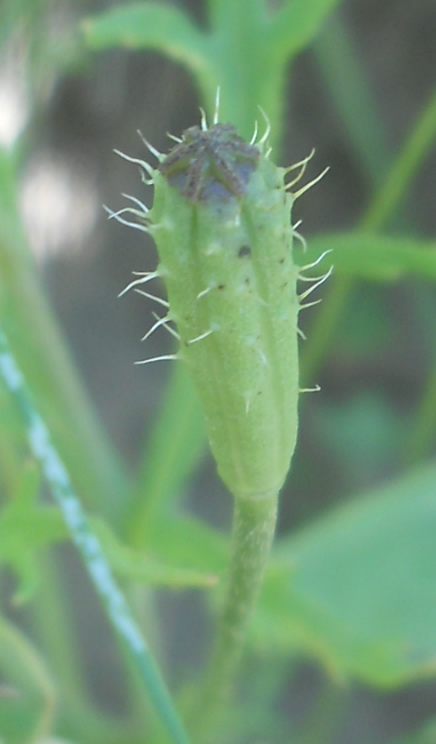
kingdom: Plantae
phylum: Tracheophyta
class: Magnoliopsida
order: Ranunculales
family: Papaveraceae
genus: Roemeria
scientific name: Roemeria argemone
